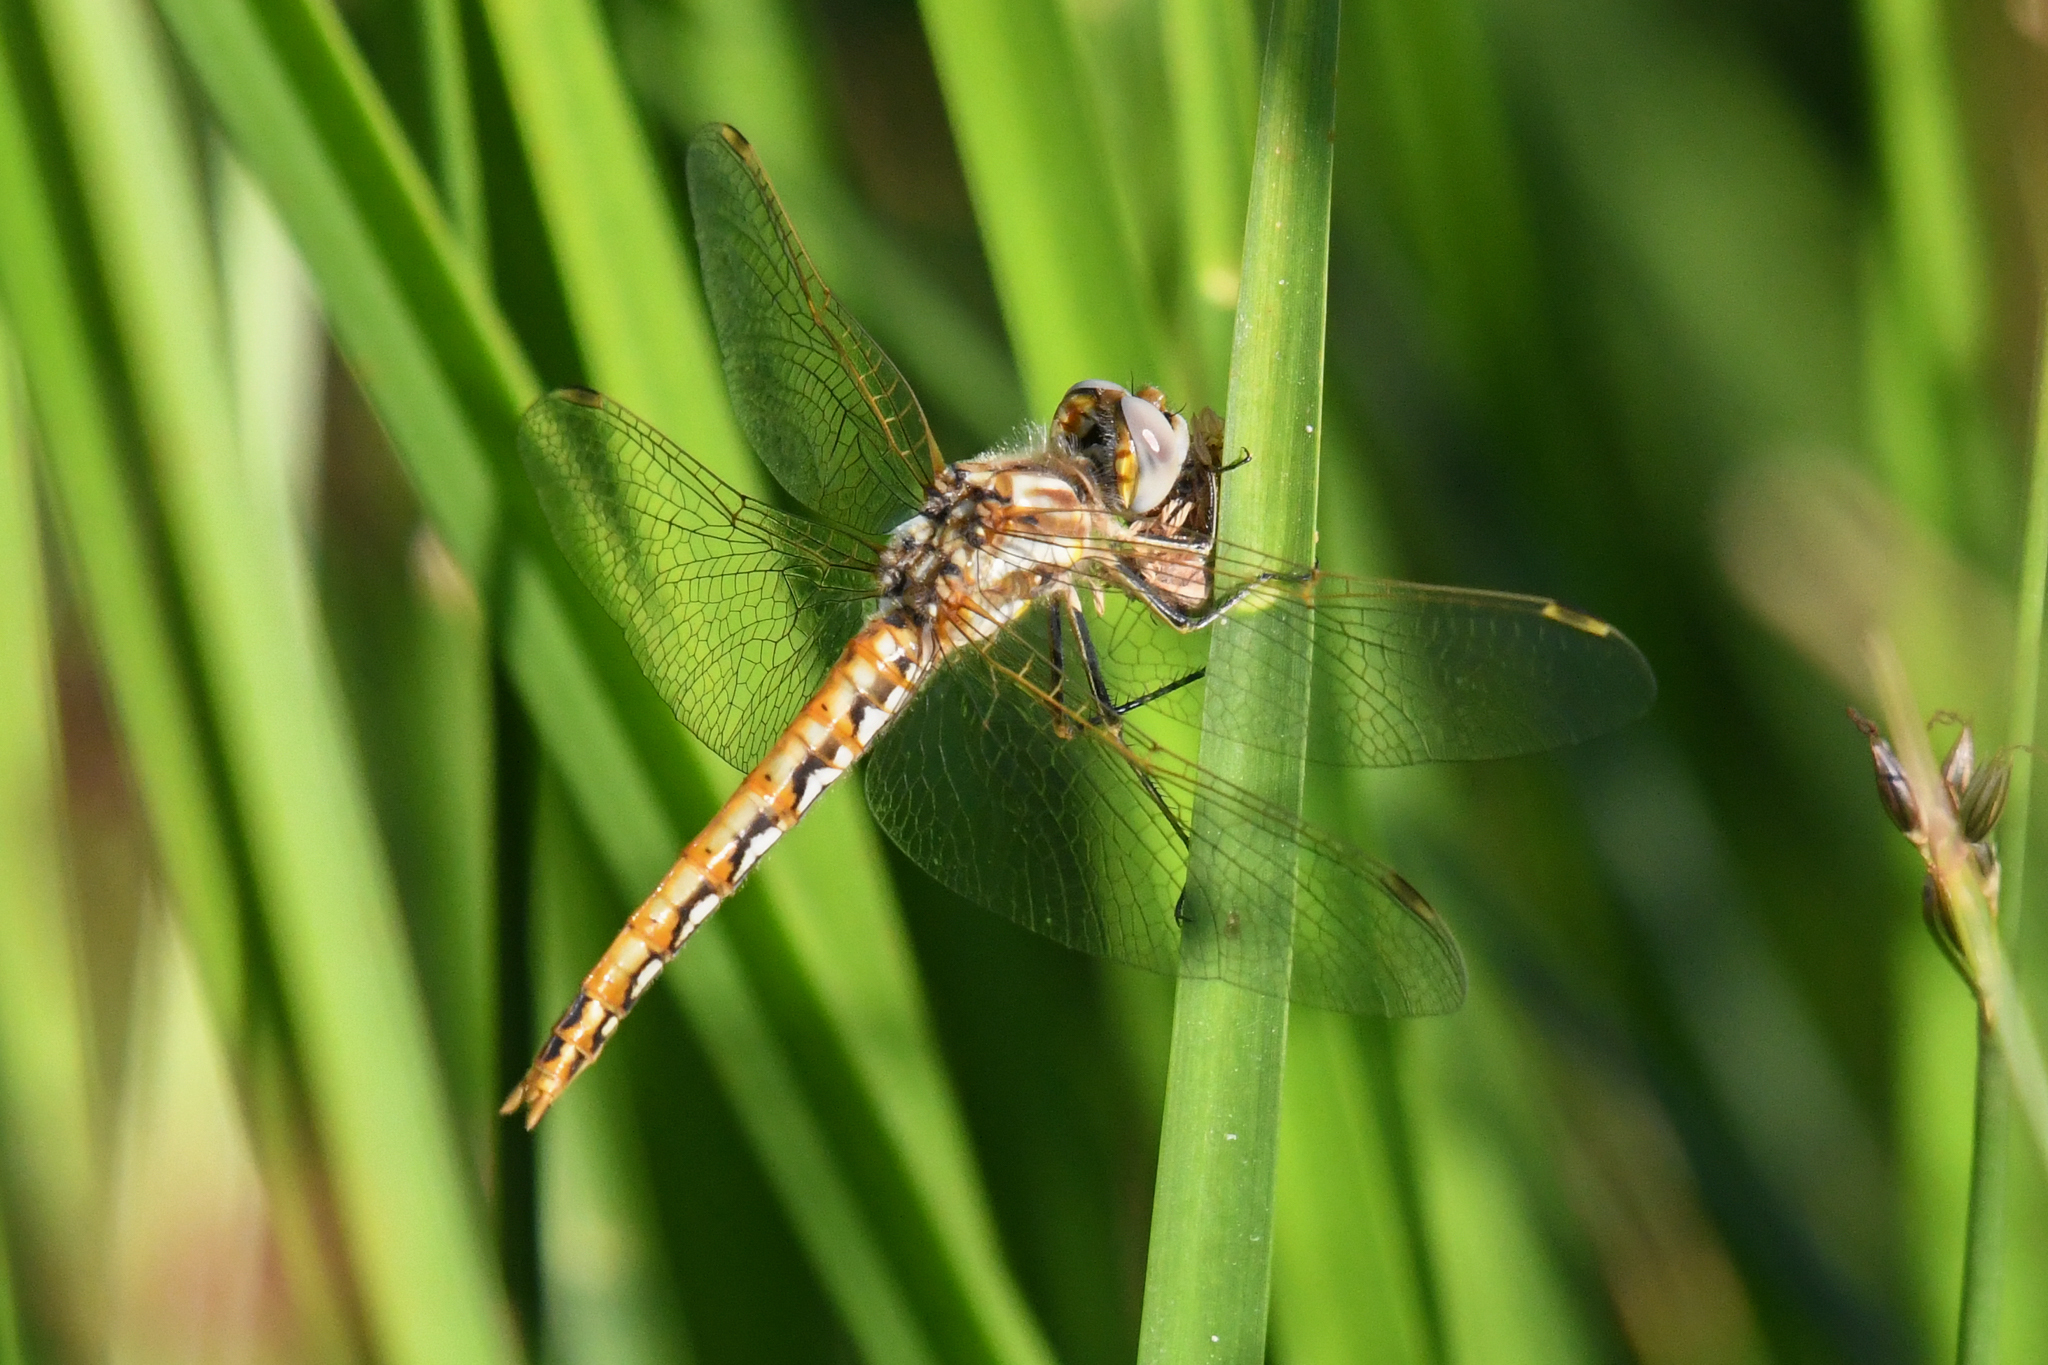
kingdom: Animalia
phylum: Arthropoda
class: Insecta
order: Odonata
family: Libellulidae
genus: Sympetrum
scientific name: Sympetrum corruptum
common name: Variegated meadowhawk
